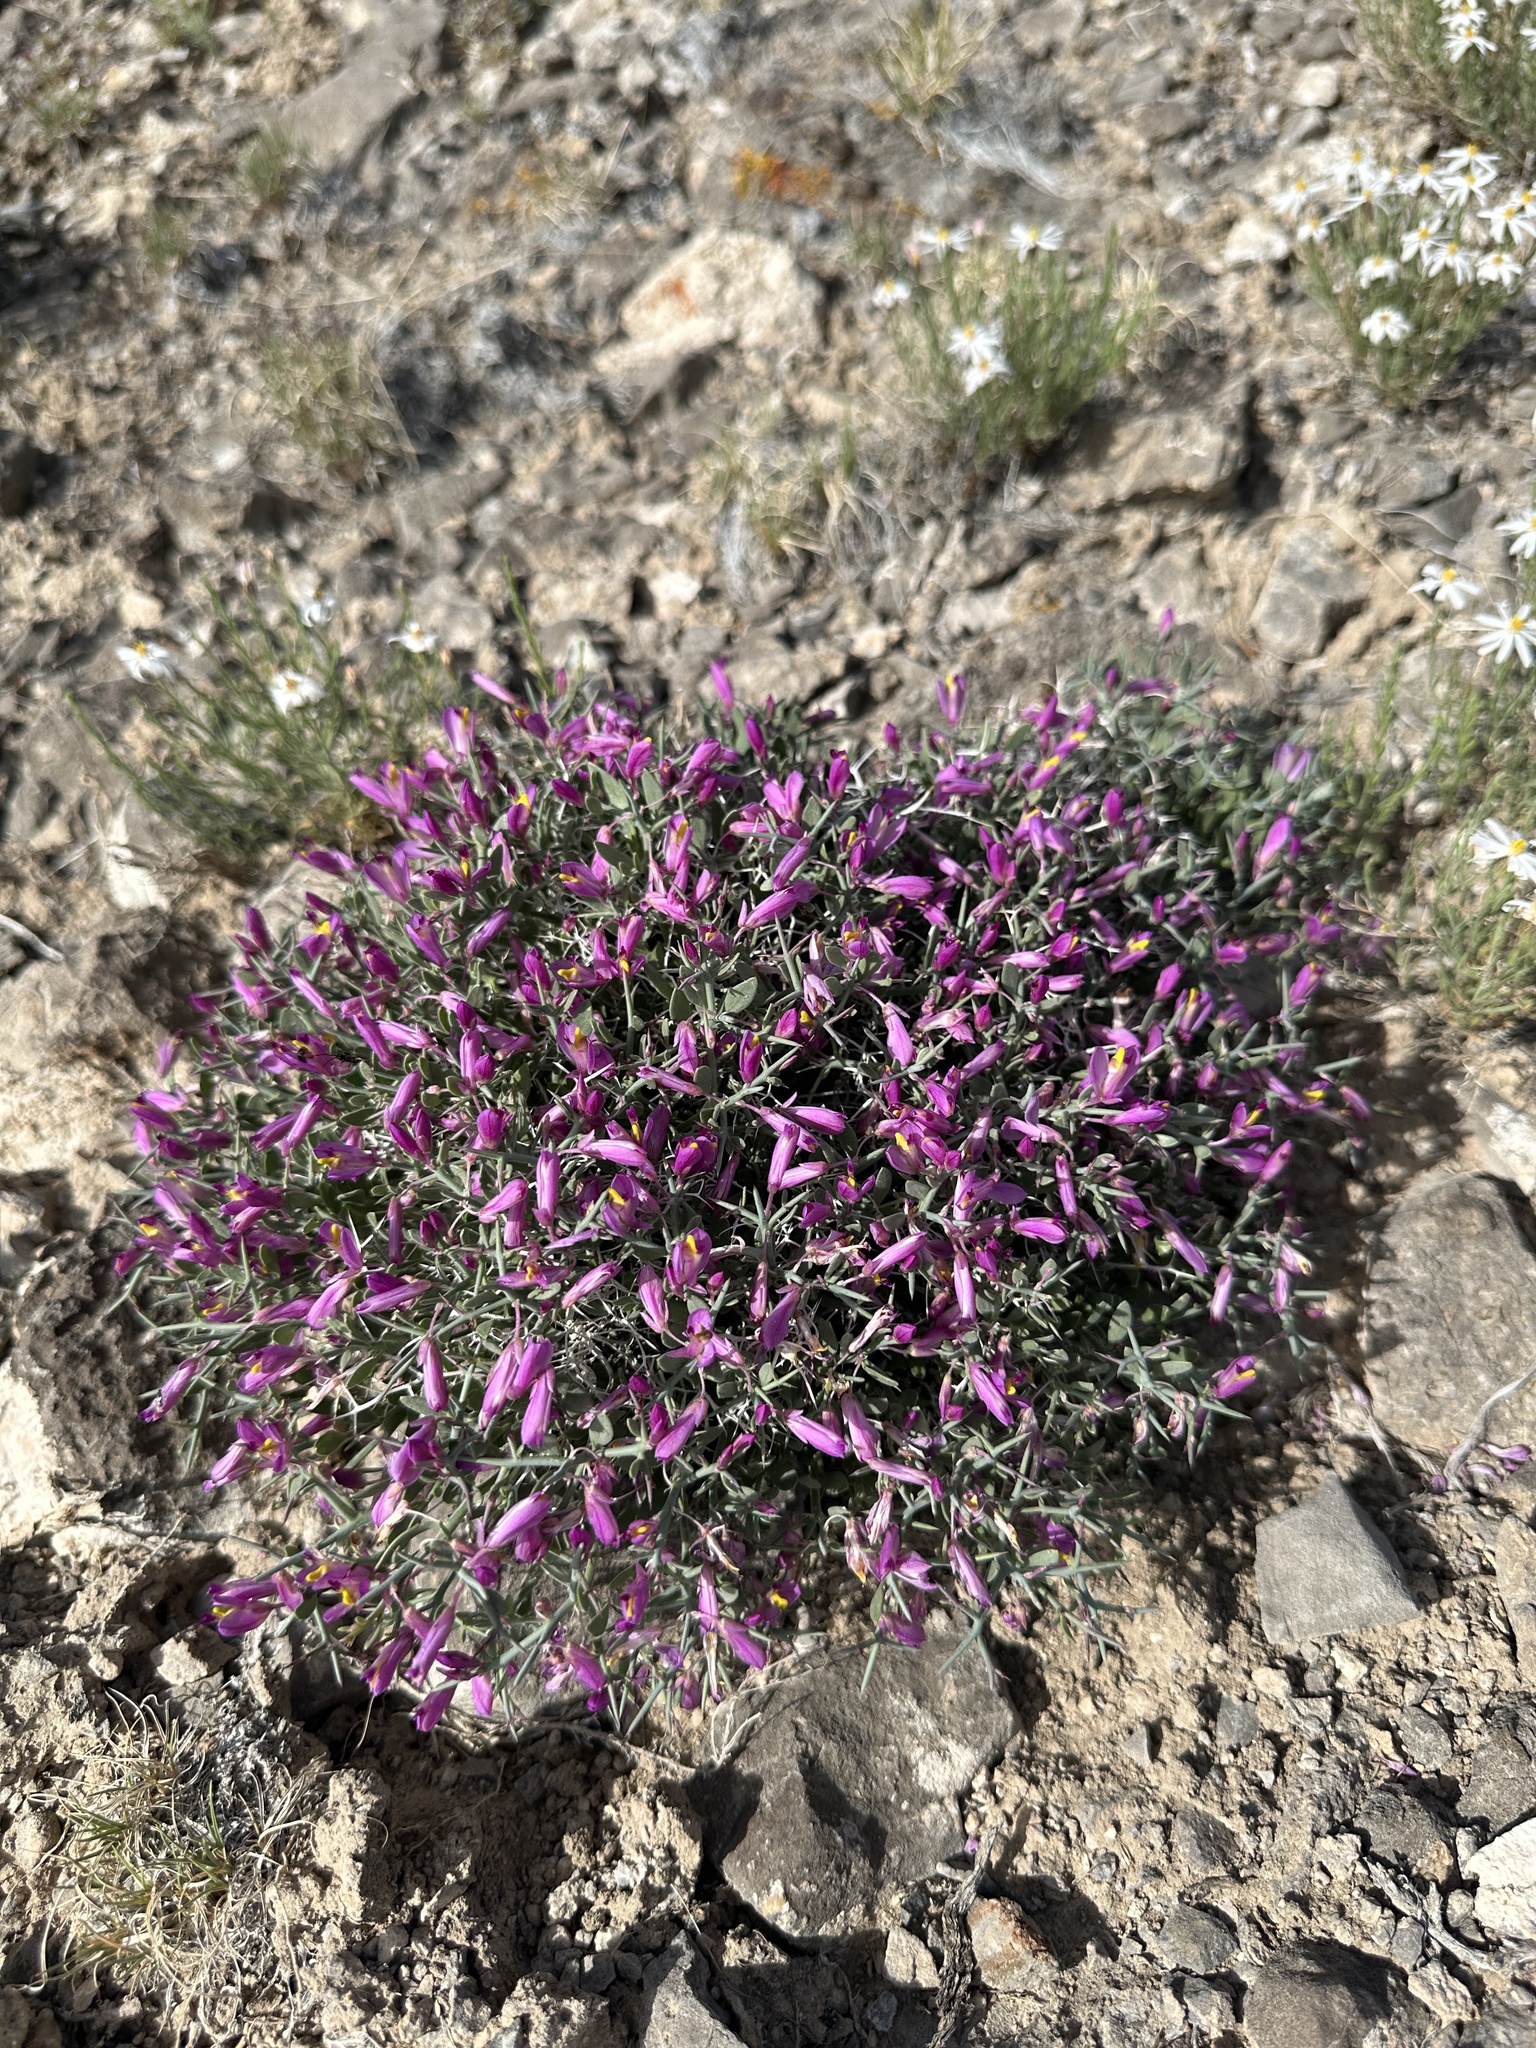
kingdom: Plantae
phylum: Tracheophyta
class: Magnoliopsida
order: Fabales
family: Polygalaceae
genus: Rhinotropis
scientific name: Rhinotropis subspinosa
